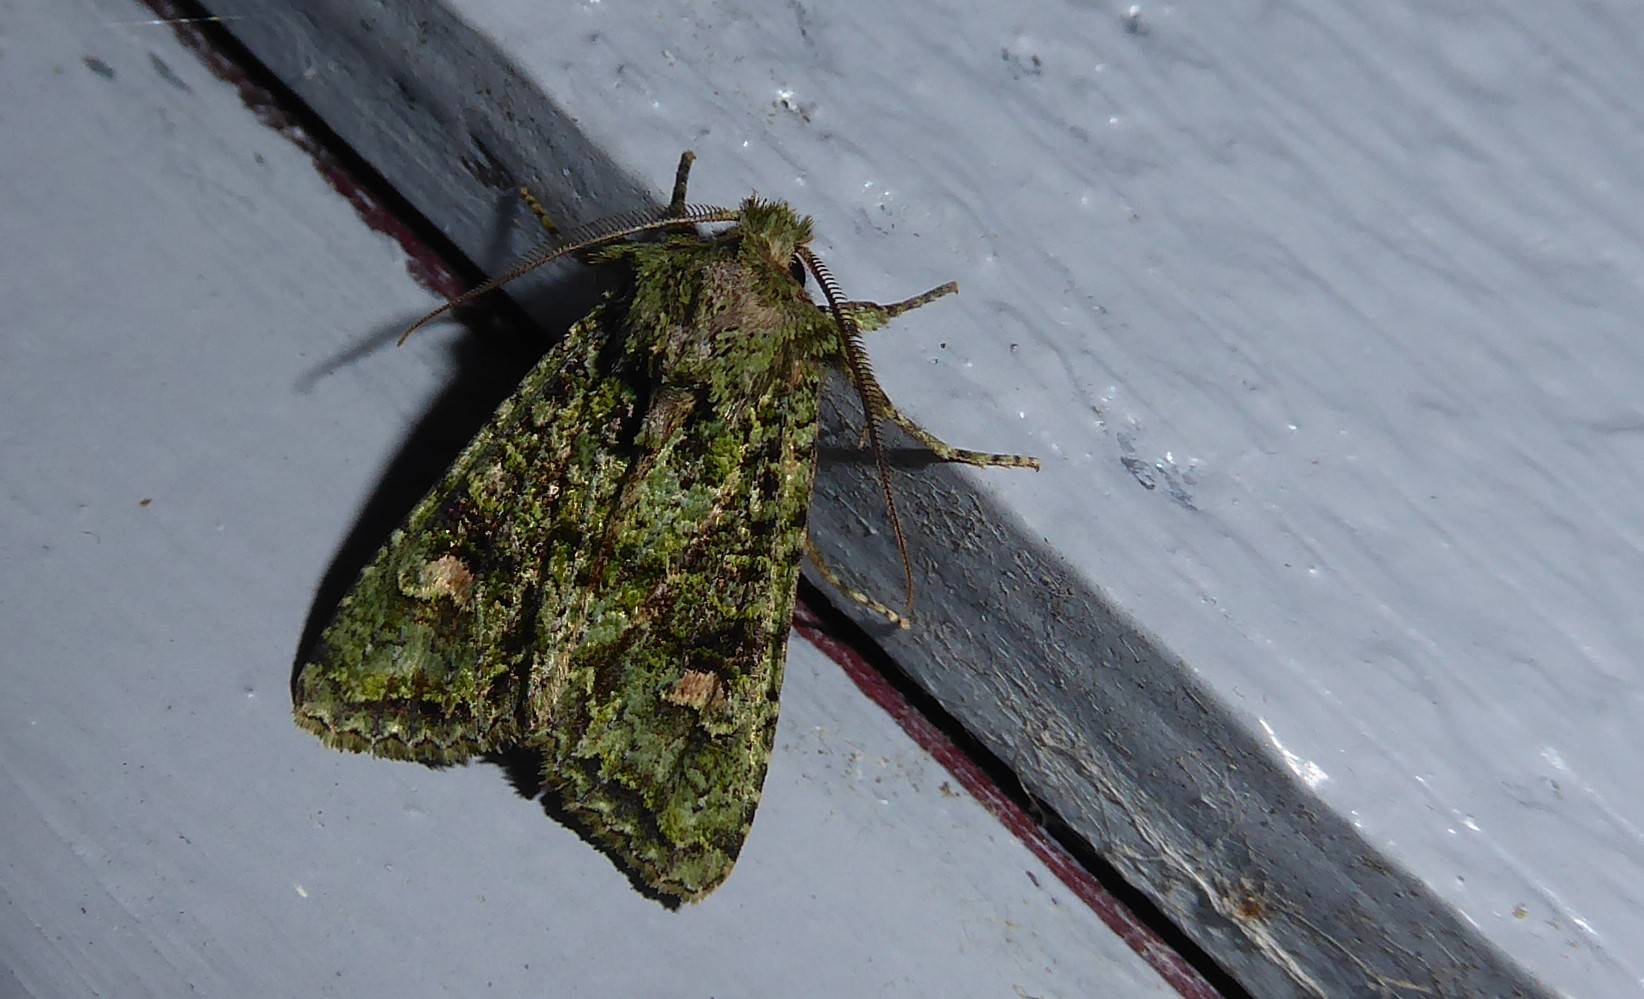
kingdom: Animalia
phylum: Arthropoda
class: Insecta
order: Lepidoptera
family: Noctuidae
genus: Ichneutica
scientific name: Ichneutica
